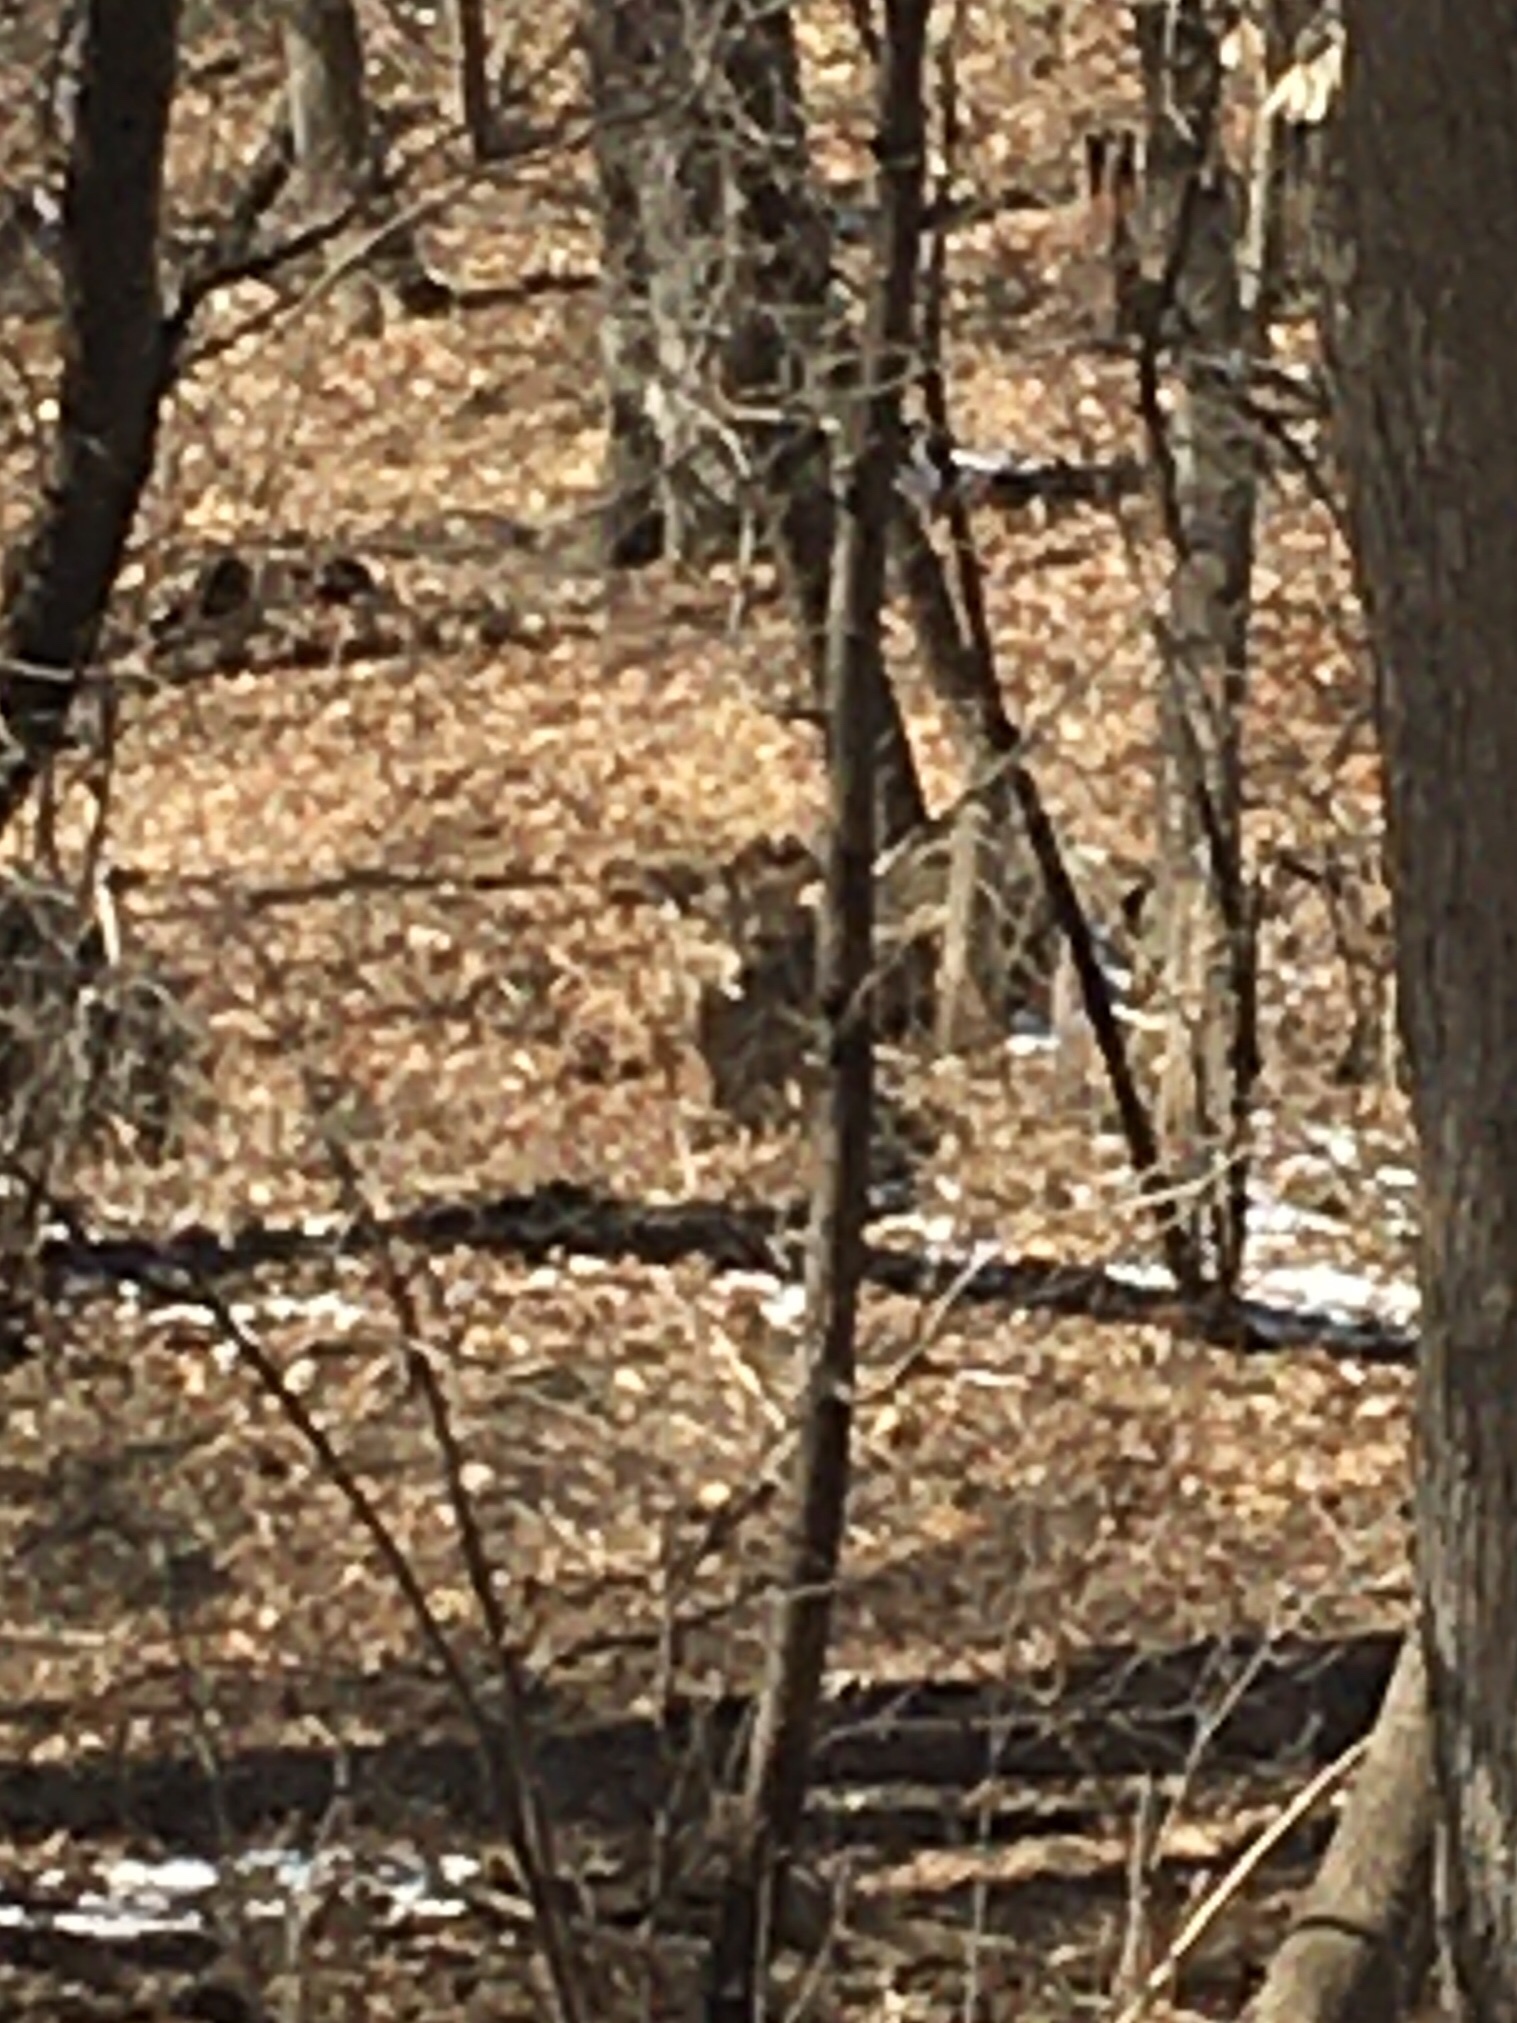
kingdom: Animalia
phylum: Chordata
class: Mammalia
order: Artiodactyla
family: Cervidae
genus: Odocoileus
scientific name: Odocoileus virginianus
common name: White-tailed deer
